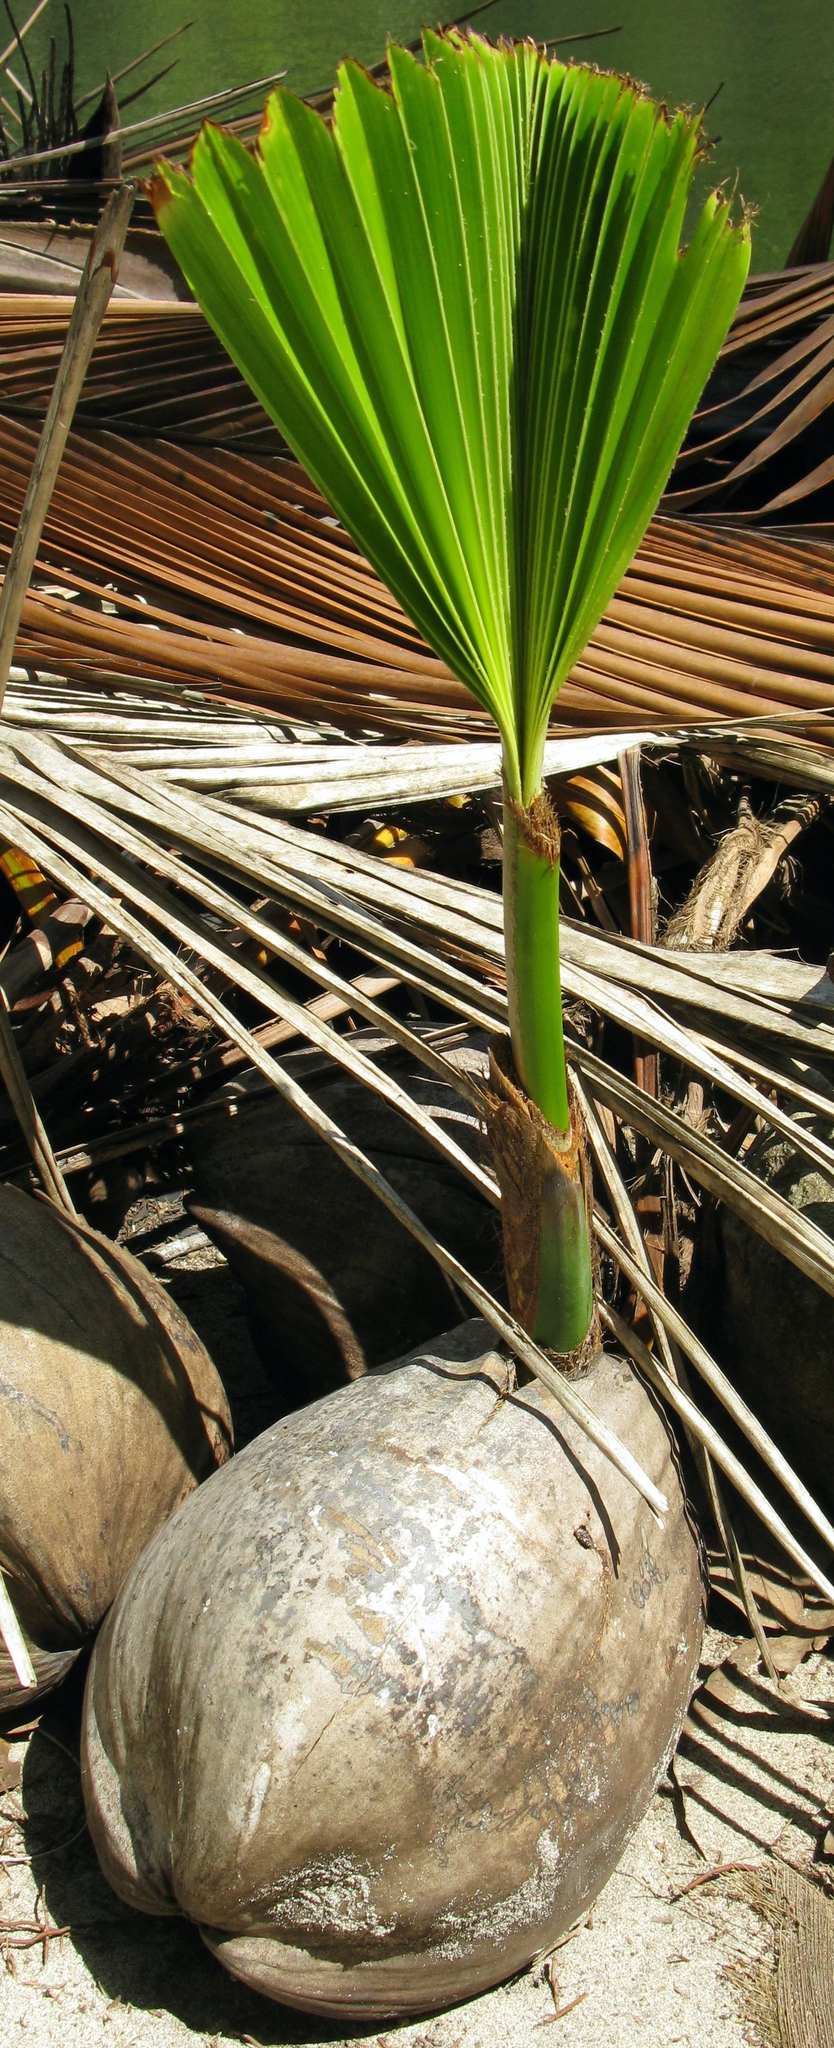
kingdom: Plantae
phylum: Tracheophyta
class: Liliopsida
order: Arecales
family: Arecaceae
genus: Cocos
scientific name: Cocos nucifera
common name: Coconut palm
